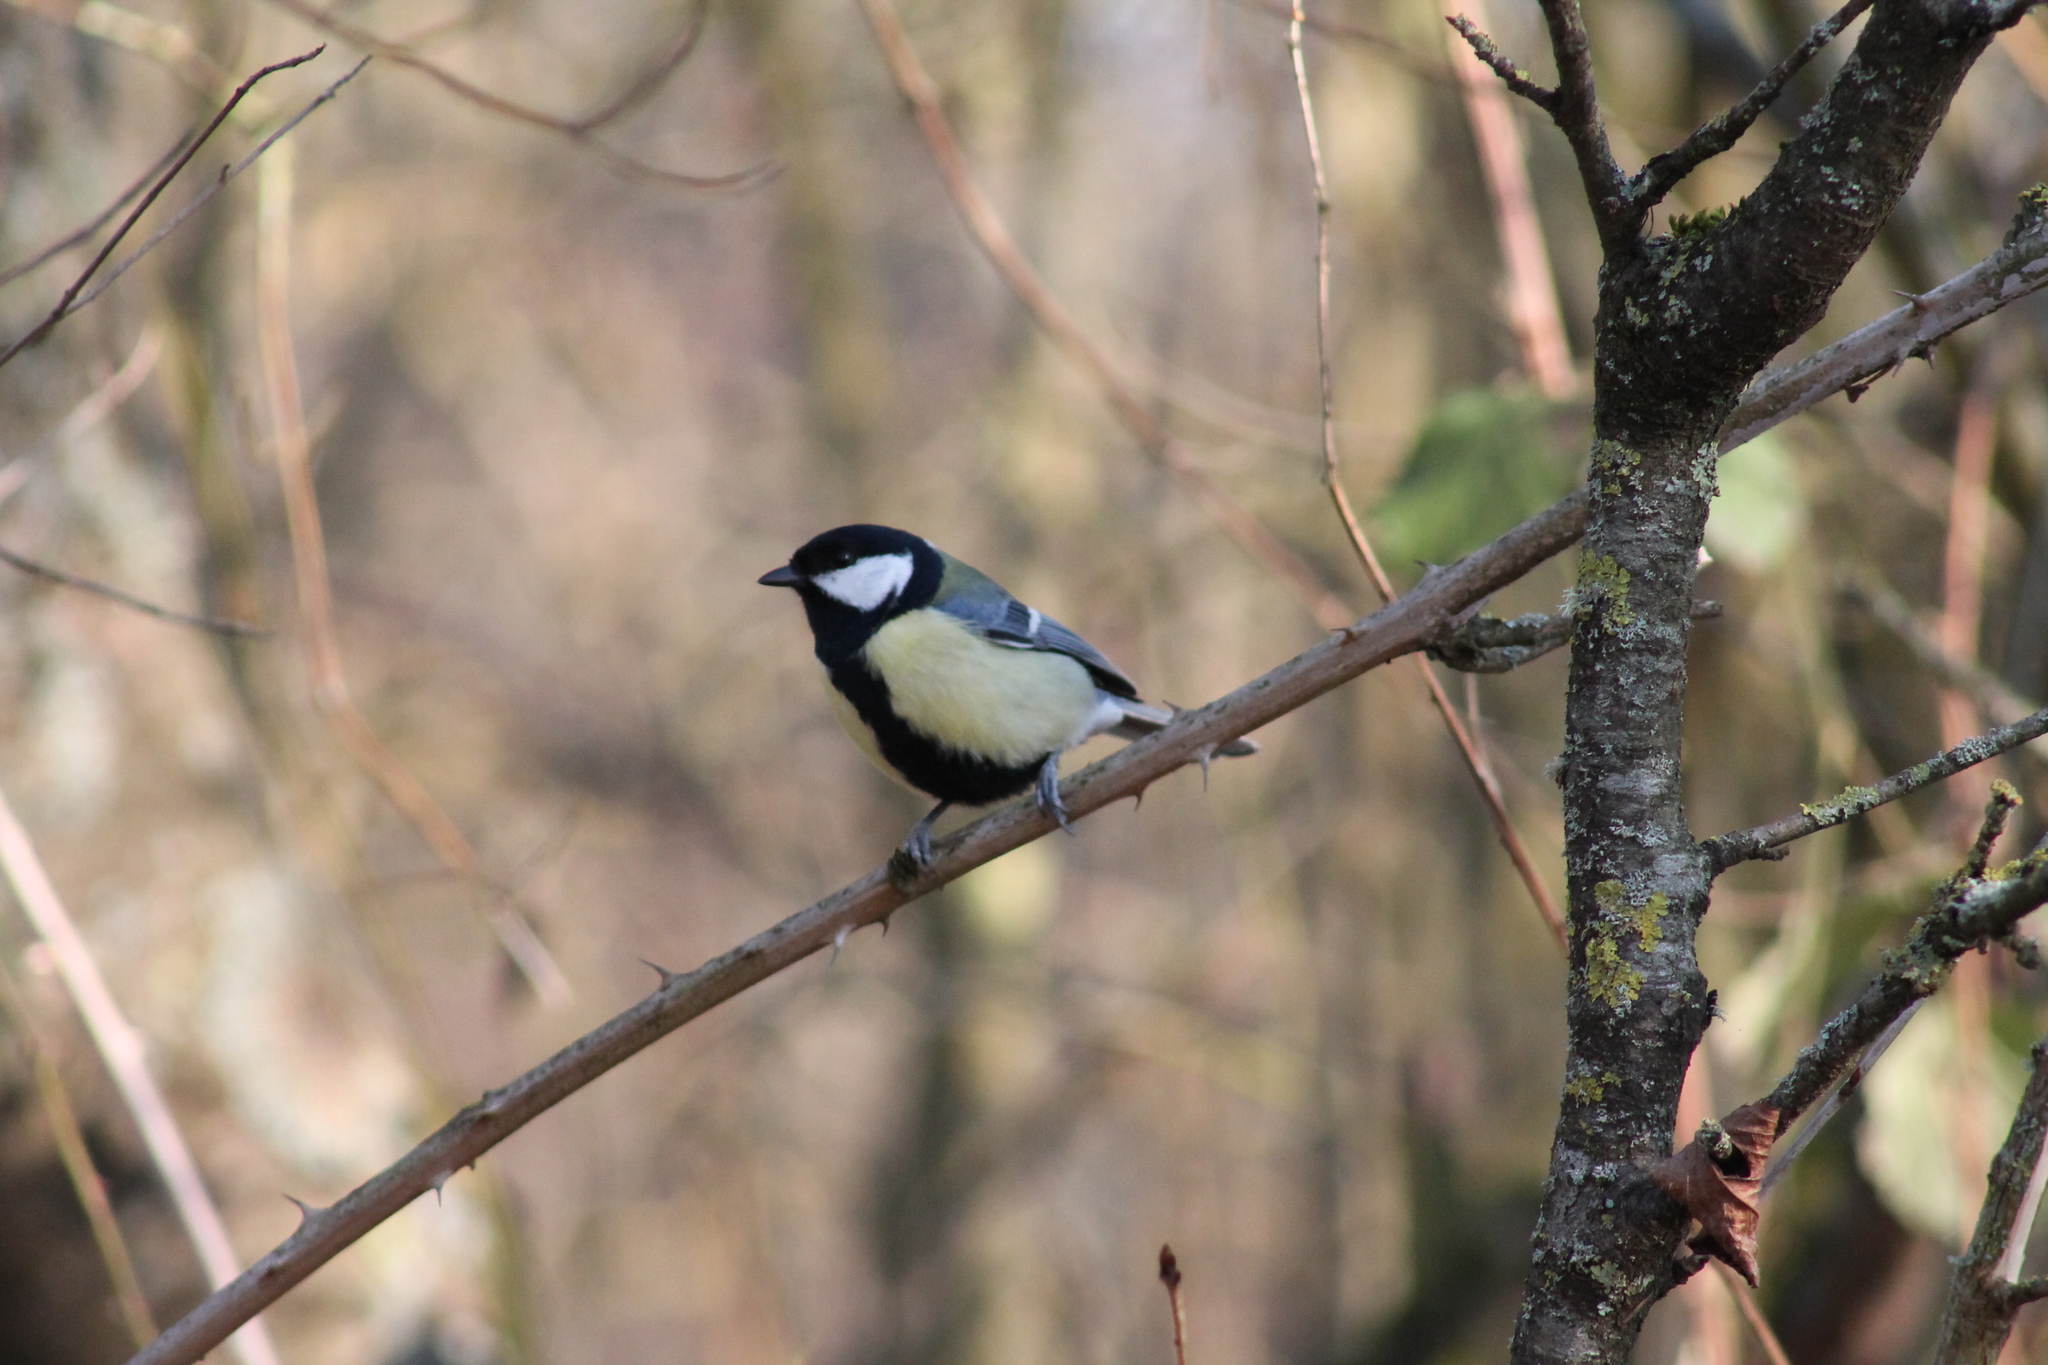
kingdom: Animalia
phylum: Chordata
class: Aves
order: Passeriformes
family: Paridae
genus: Parus
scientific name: Parus major
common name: Great tit
